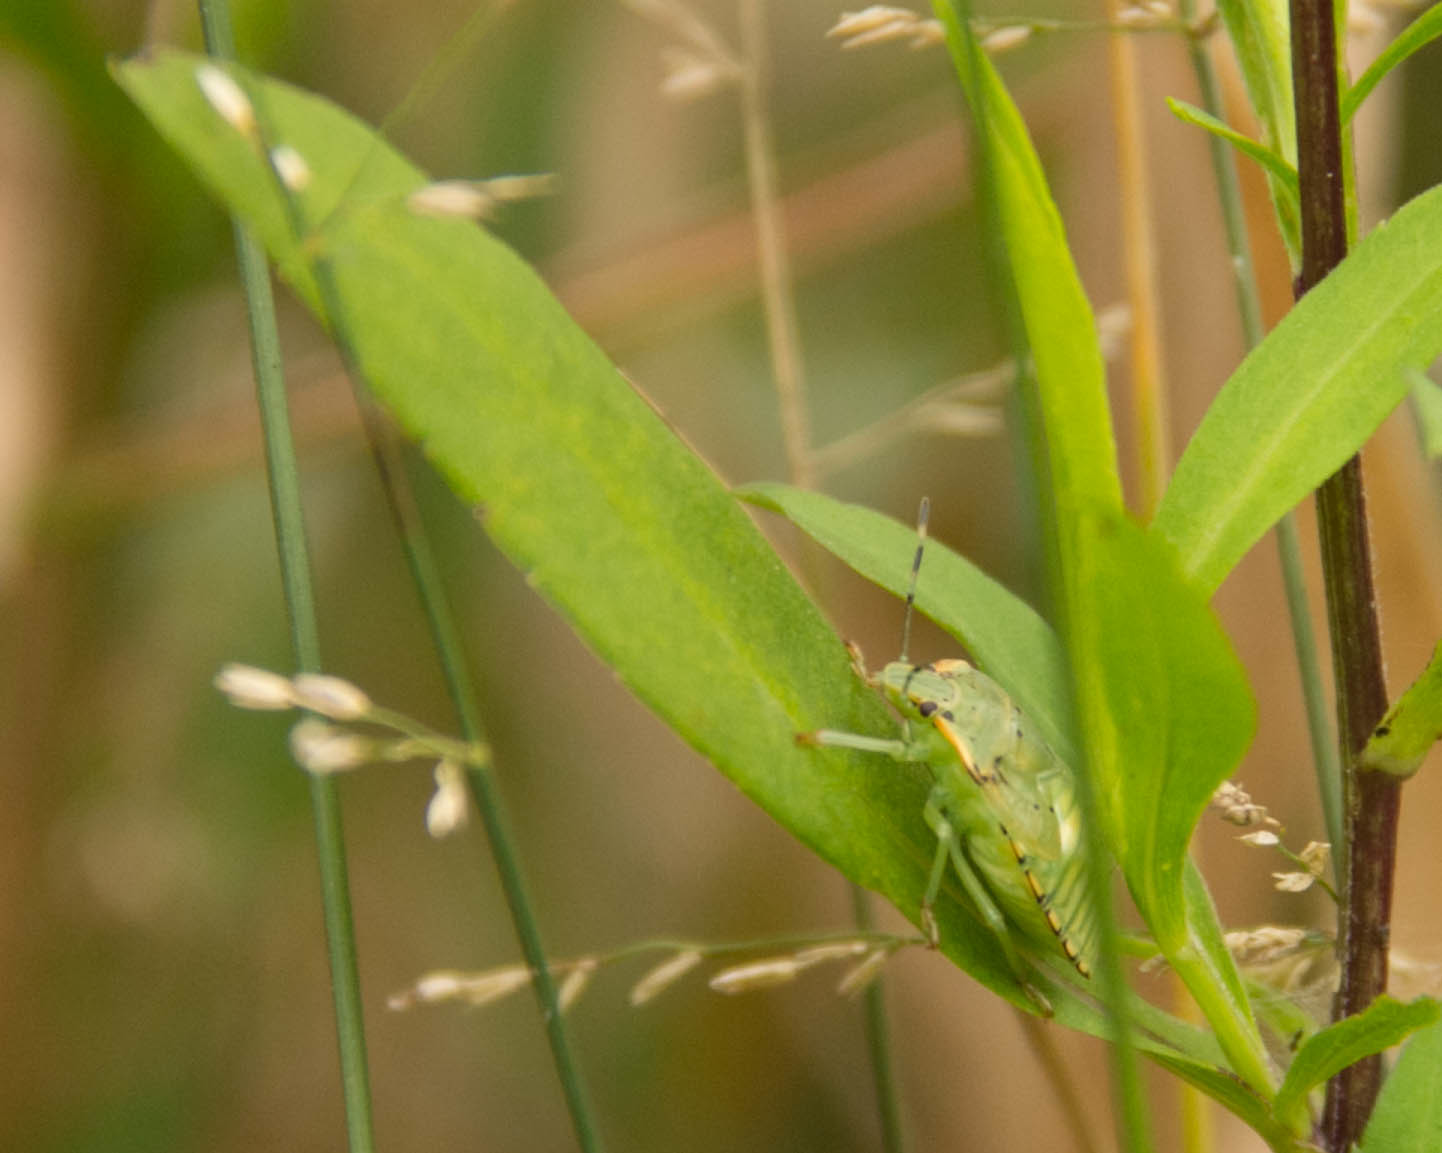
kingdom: Animalia
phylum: Arthropoda
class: Insecta
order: Hemiptera
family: Pentatomidae
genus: Chinavia
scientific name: Chinavia hilaris
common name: Green stink bug
